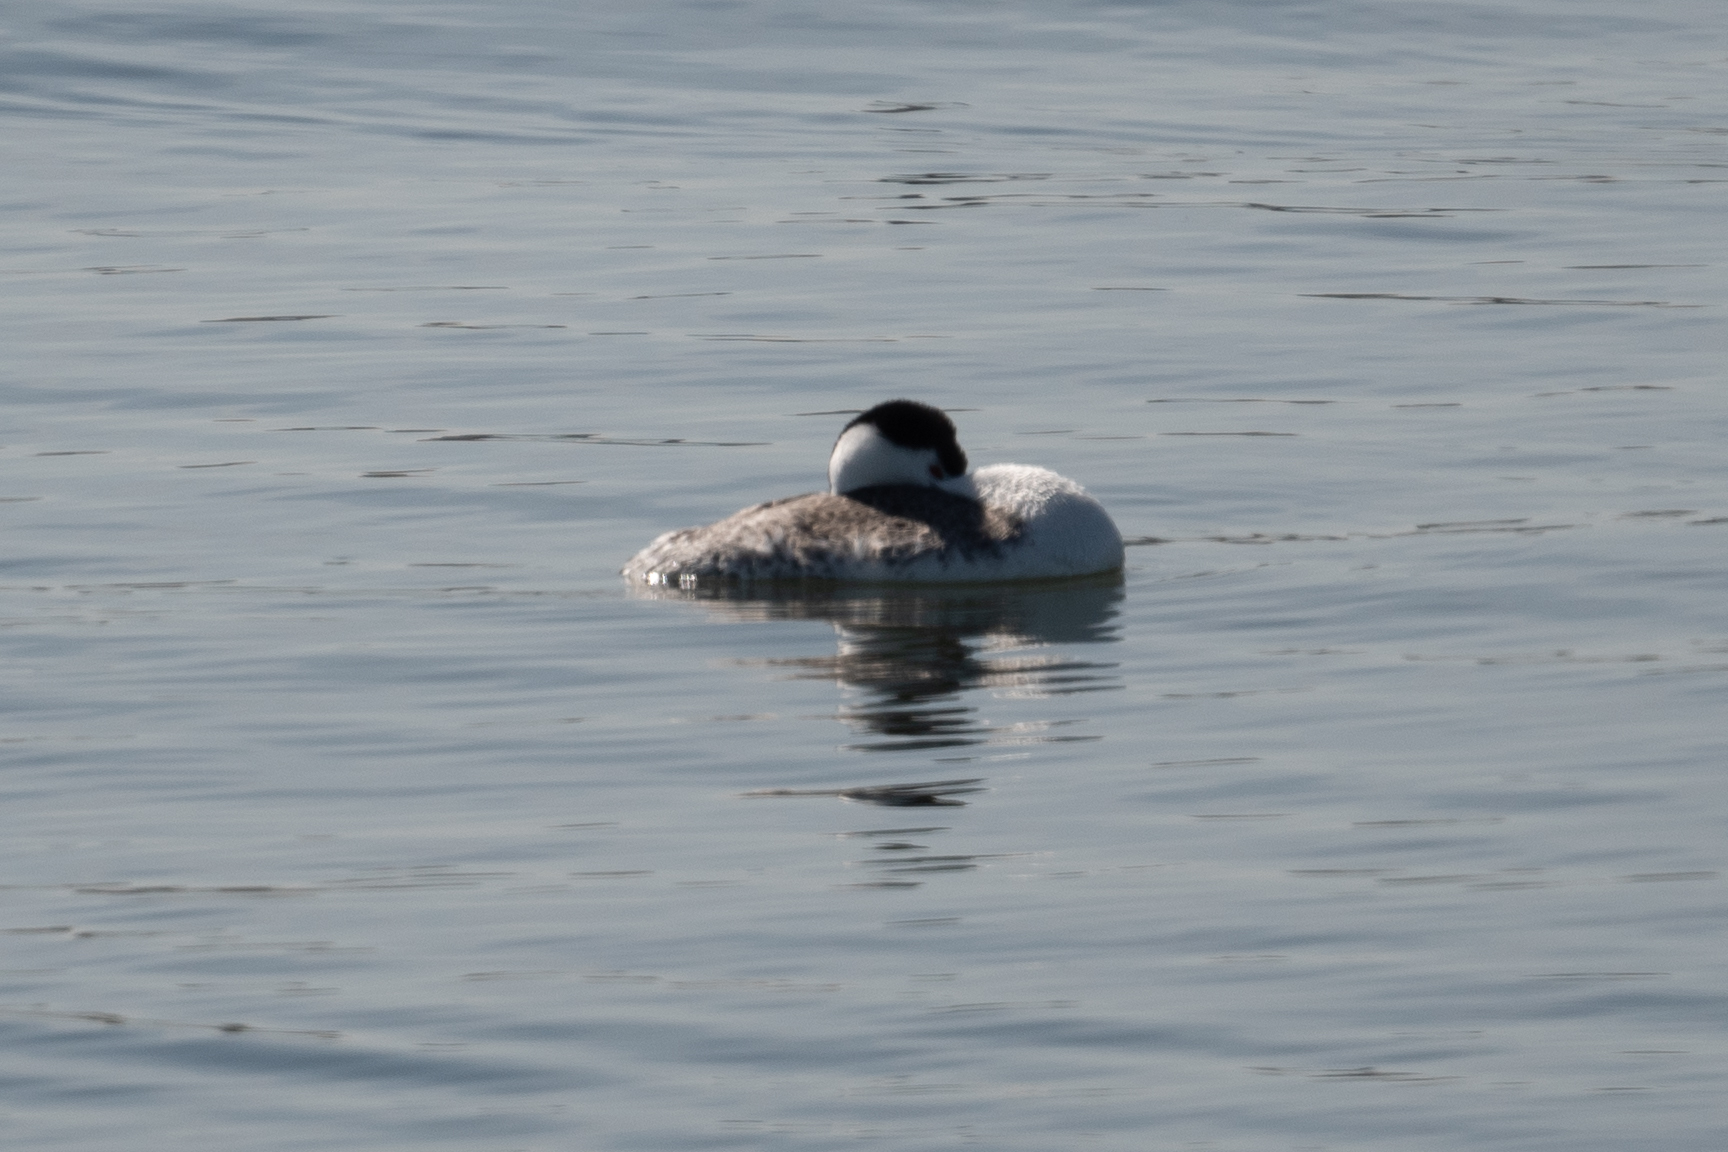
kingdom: Animalia
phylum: Chordata
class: Aves
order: Podicipediformes
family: Podicipedidae
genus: Aechmophorus
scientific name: Aechmophorus clarkii
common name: Clark's grebe
